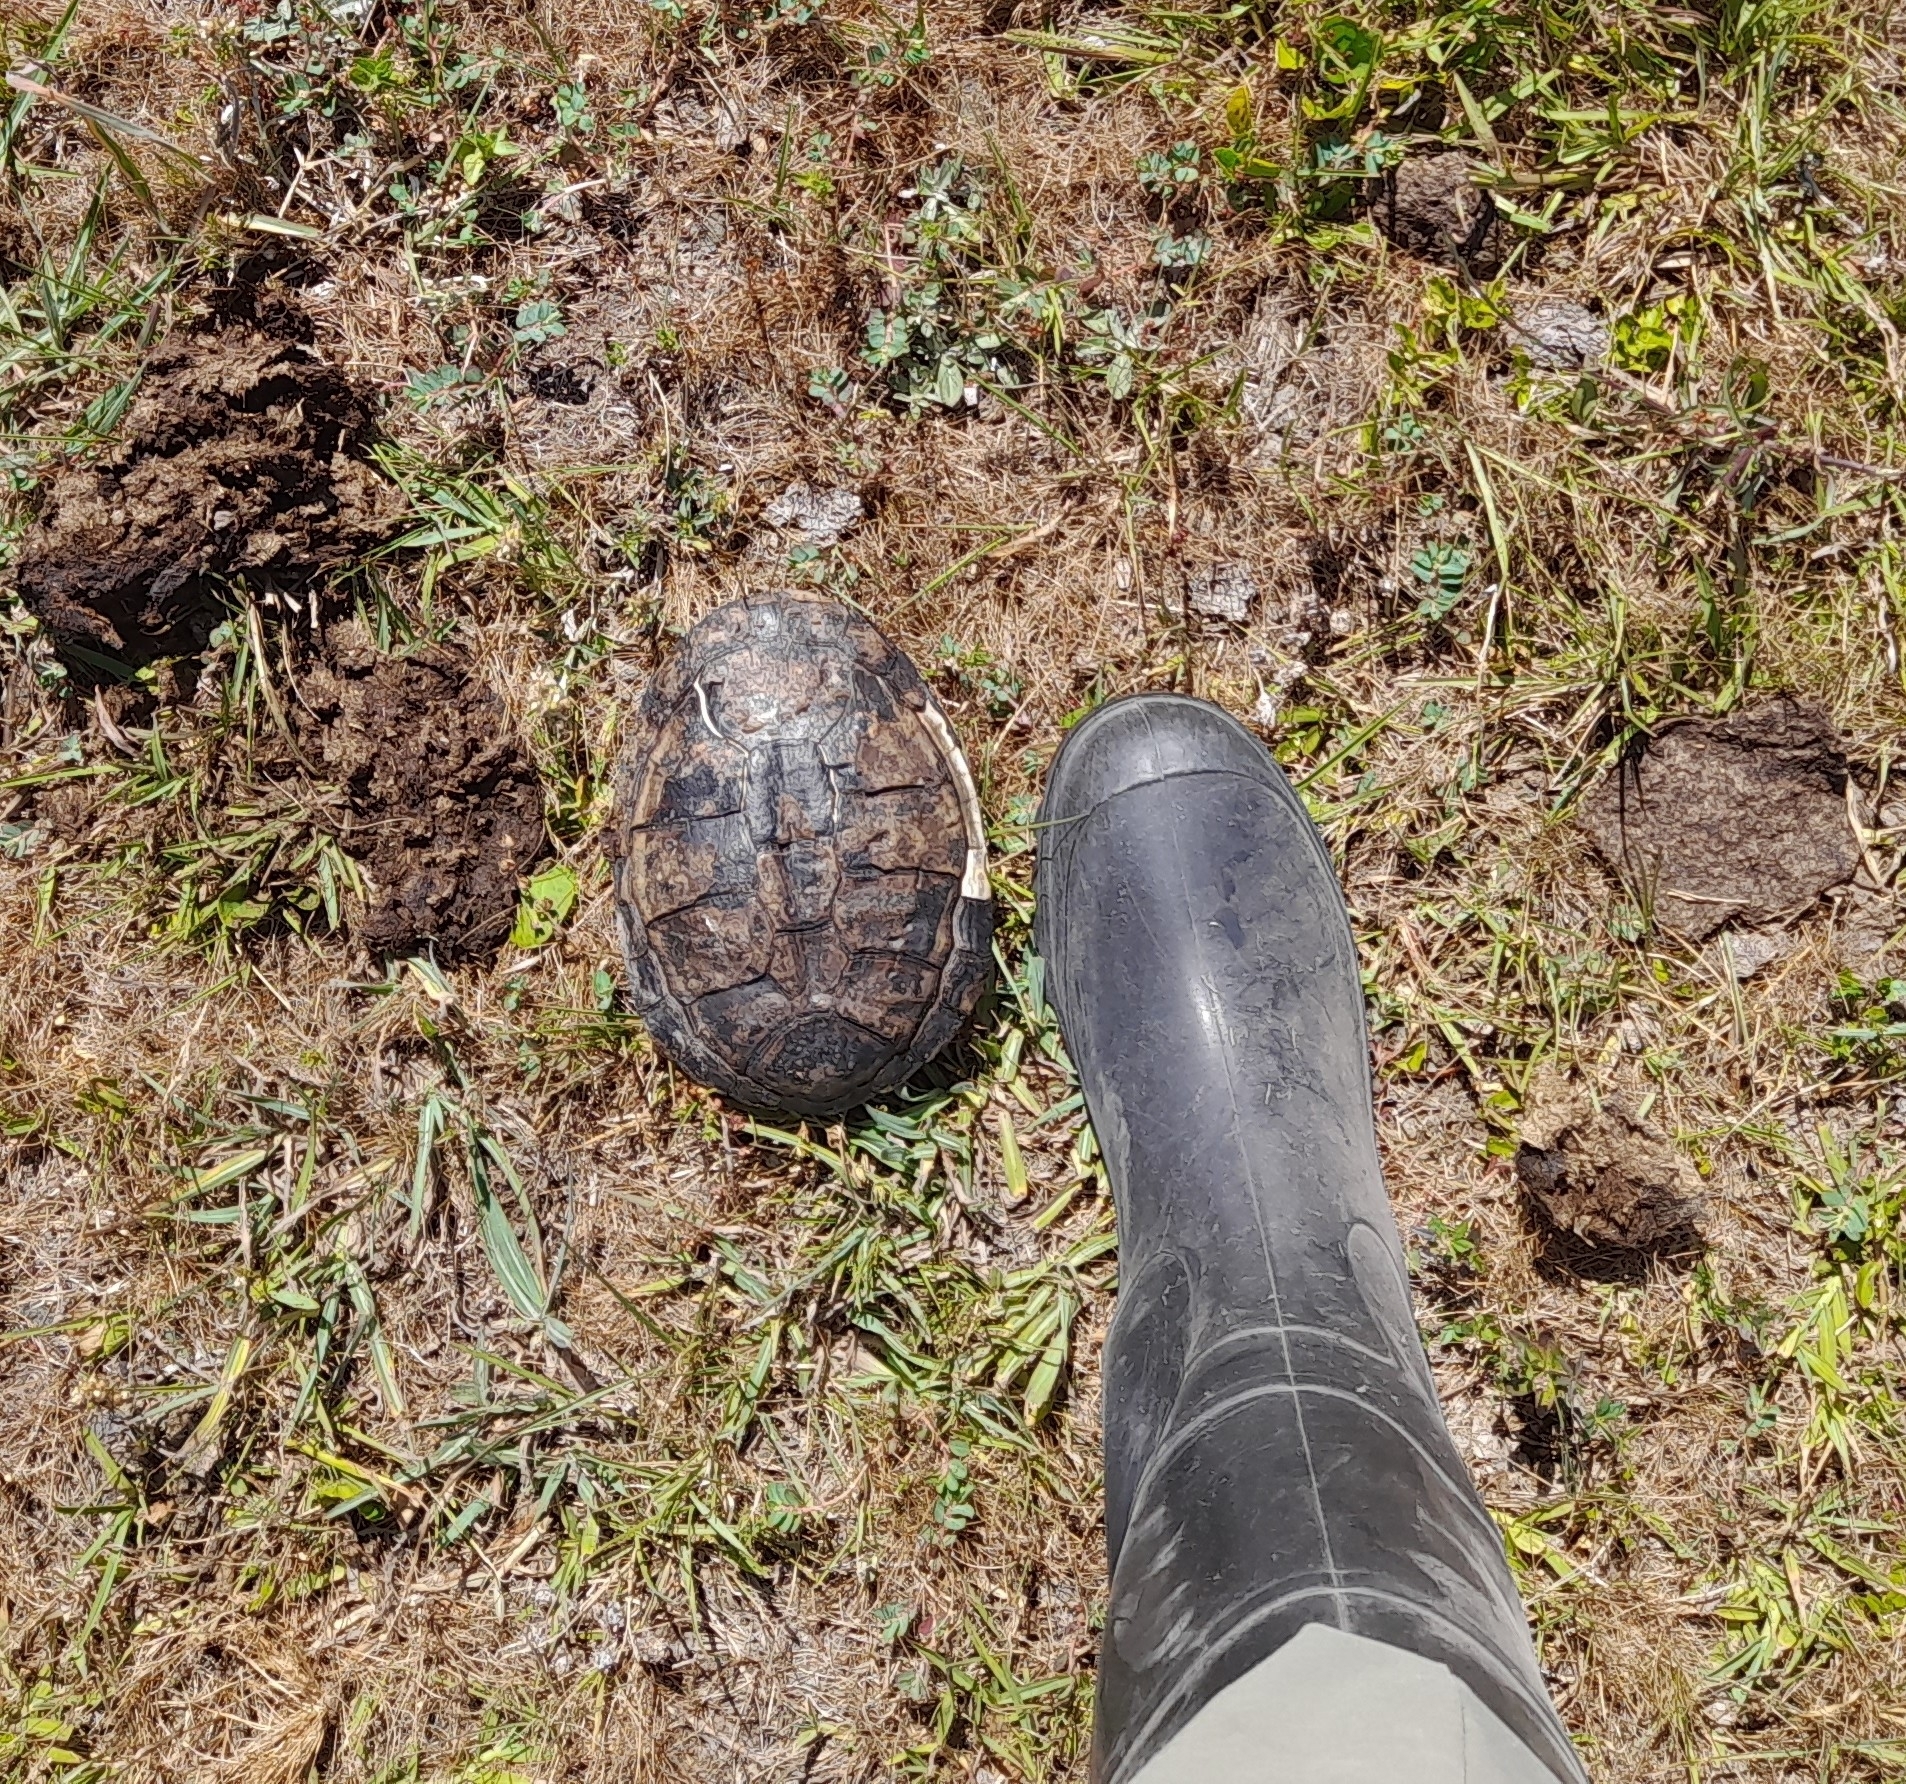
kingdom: Animalia
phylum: Chordata
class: Testudines
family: Chelidae
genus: Acanthochelys
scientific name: Acanthochelys spixii
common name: Black spine-neck swamp turtle
